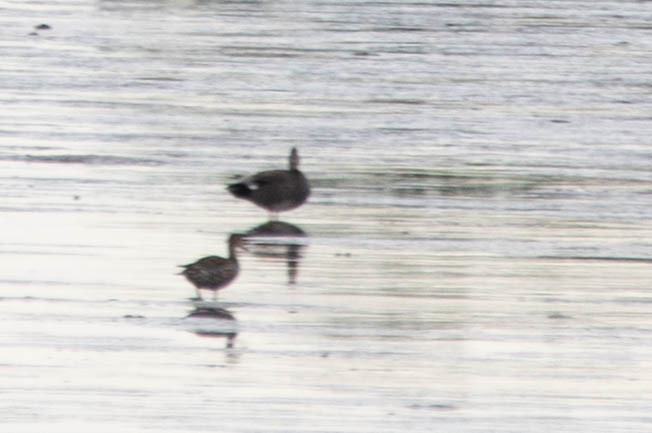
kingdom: Animalia
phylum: Chordata
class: Aves
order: Anseriformes
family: Anatidae
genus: Mareca
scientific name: Mareca strepera
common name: Gadwall
